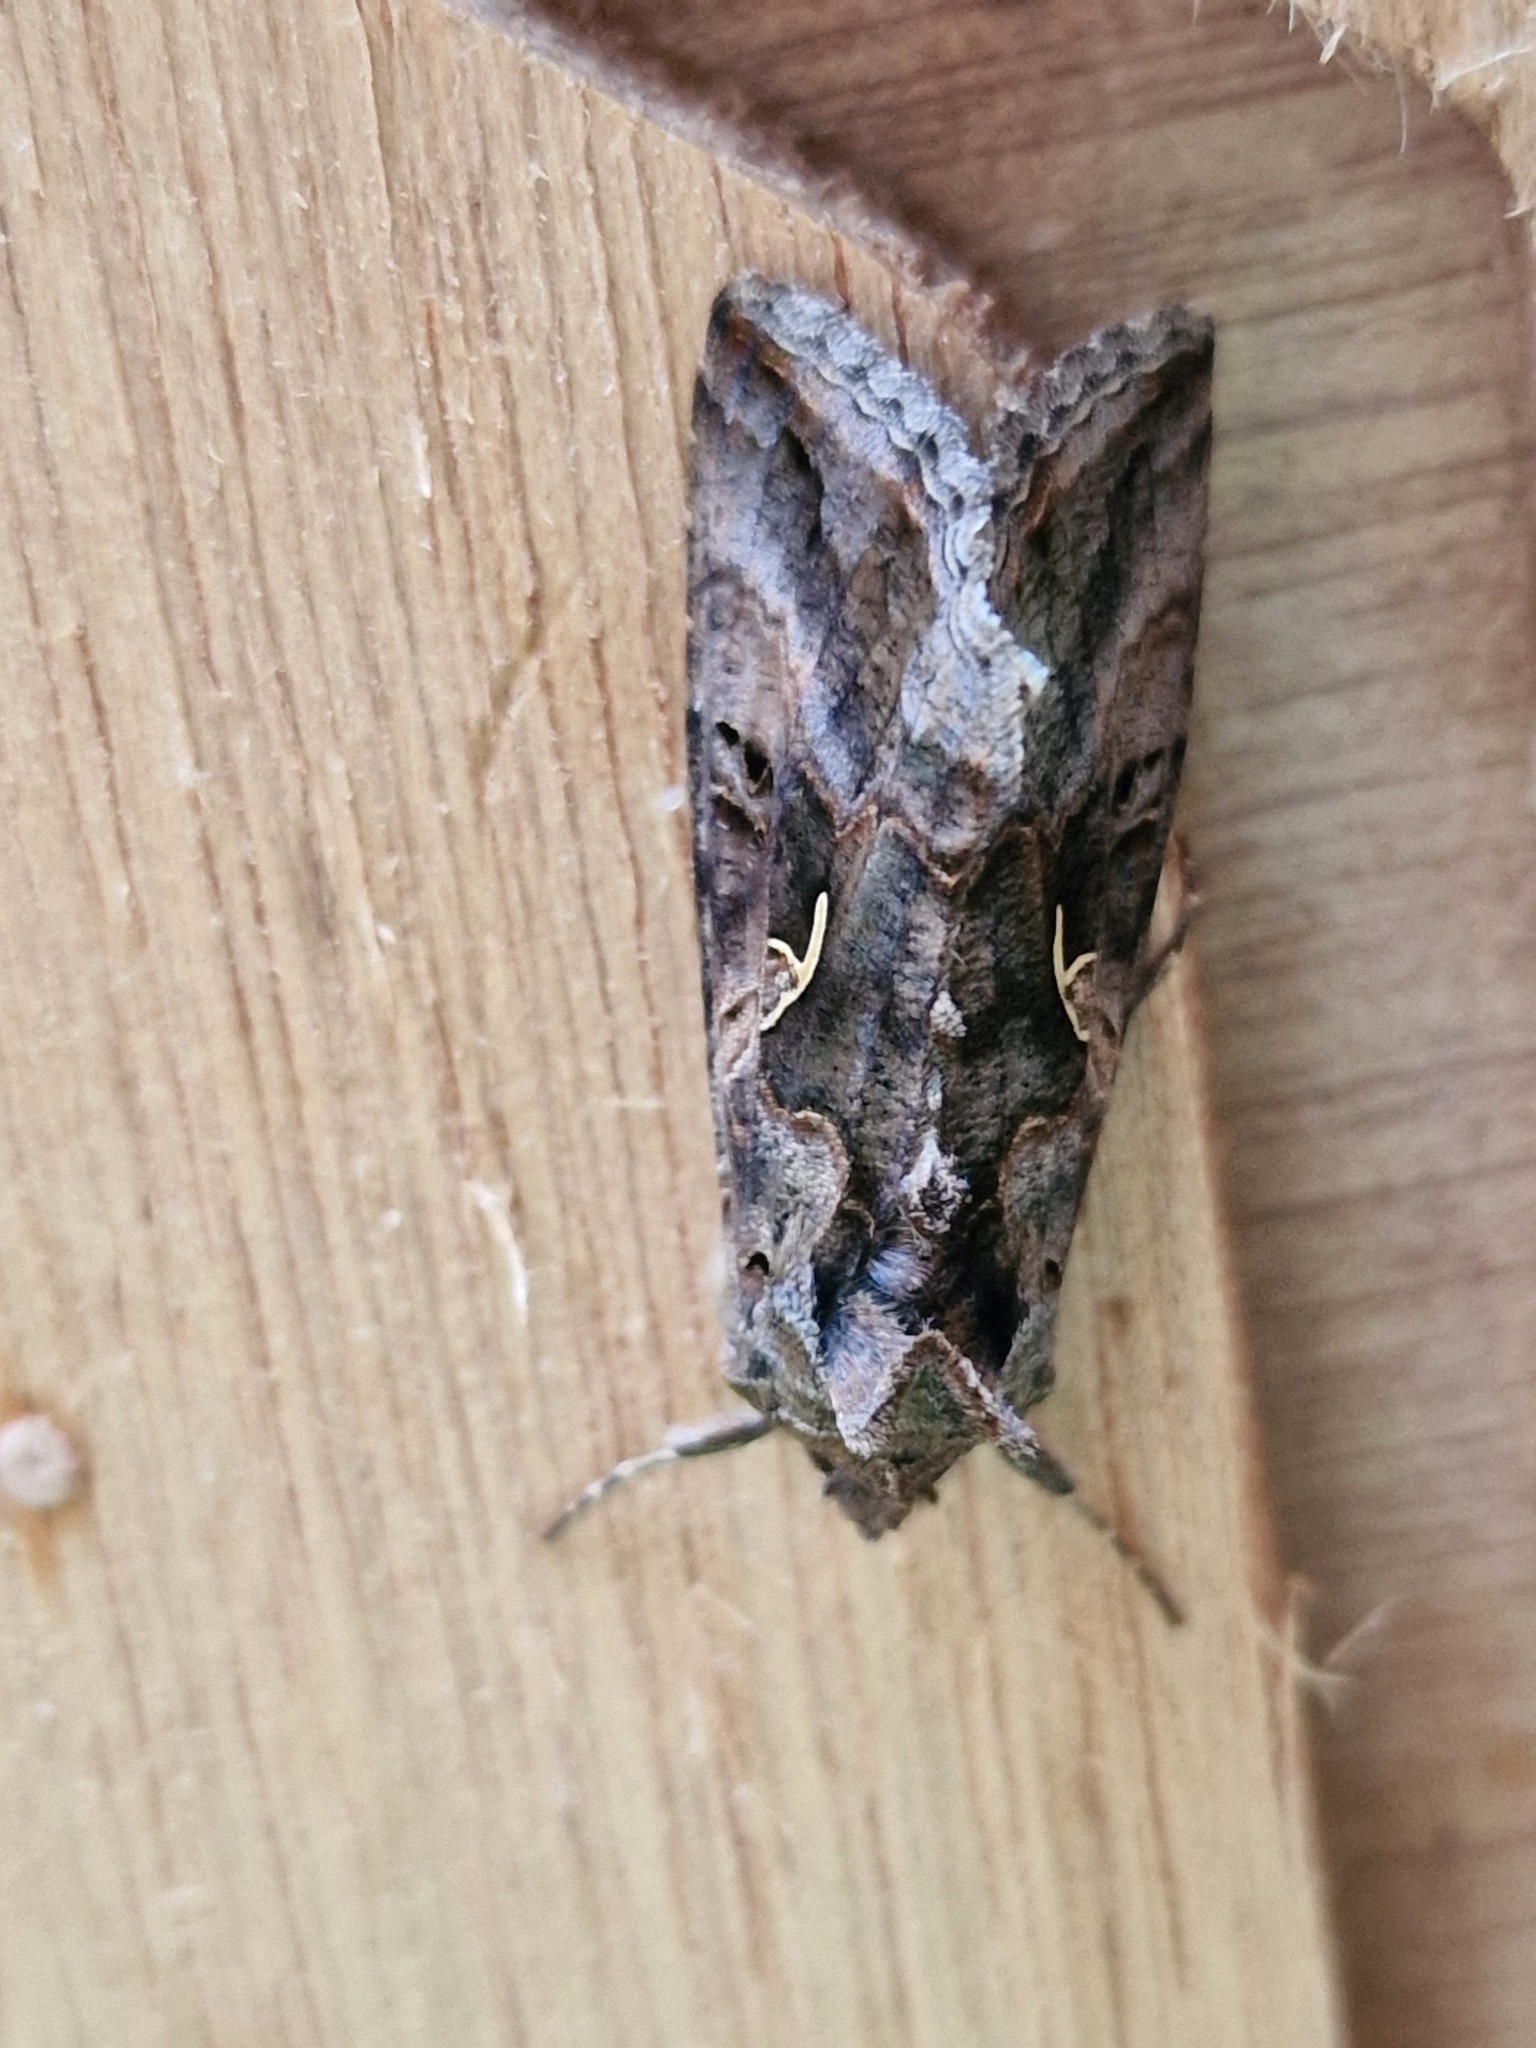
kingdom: Animalia
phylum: Arthropoda
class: Insecta
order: Lepidoptera
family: Noctuidae
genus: Autographa
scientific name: Autographa gamma
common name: Silver y
